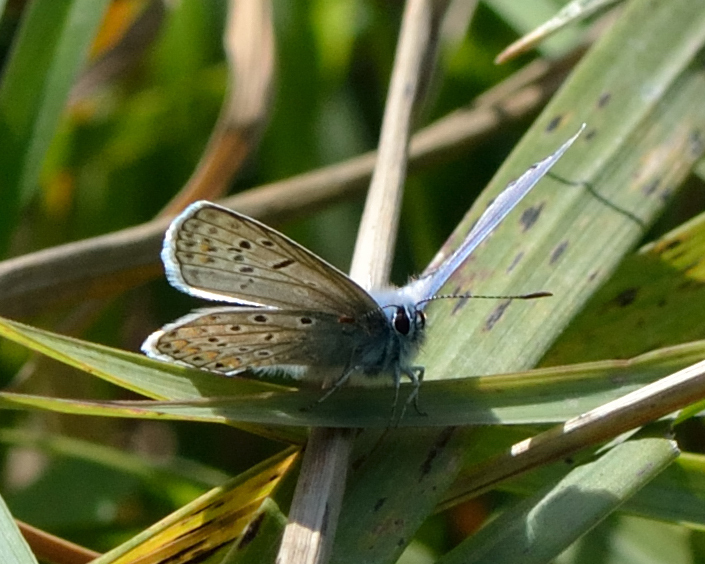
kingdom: Animalia
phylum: Arthropoda
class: Insecta
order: Lepidoptera
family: Lycaenidae
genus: Polyommatus
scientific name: Polyommatus icarus
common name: Common blue
